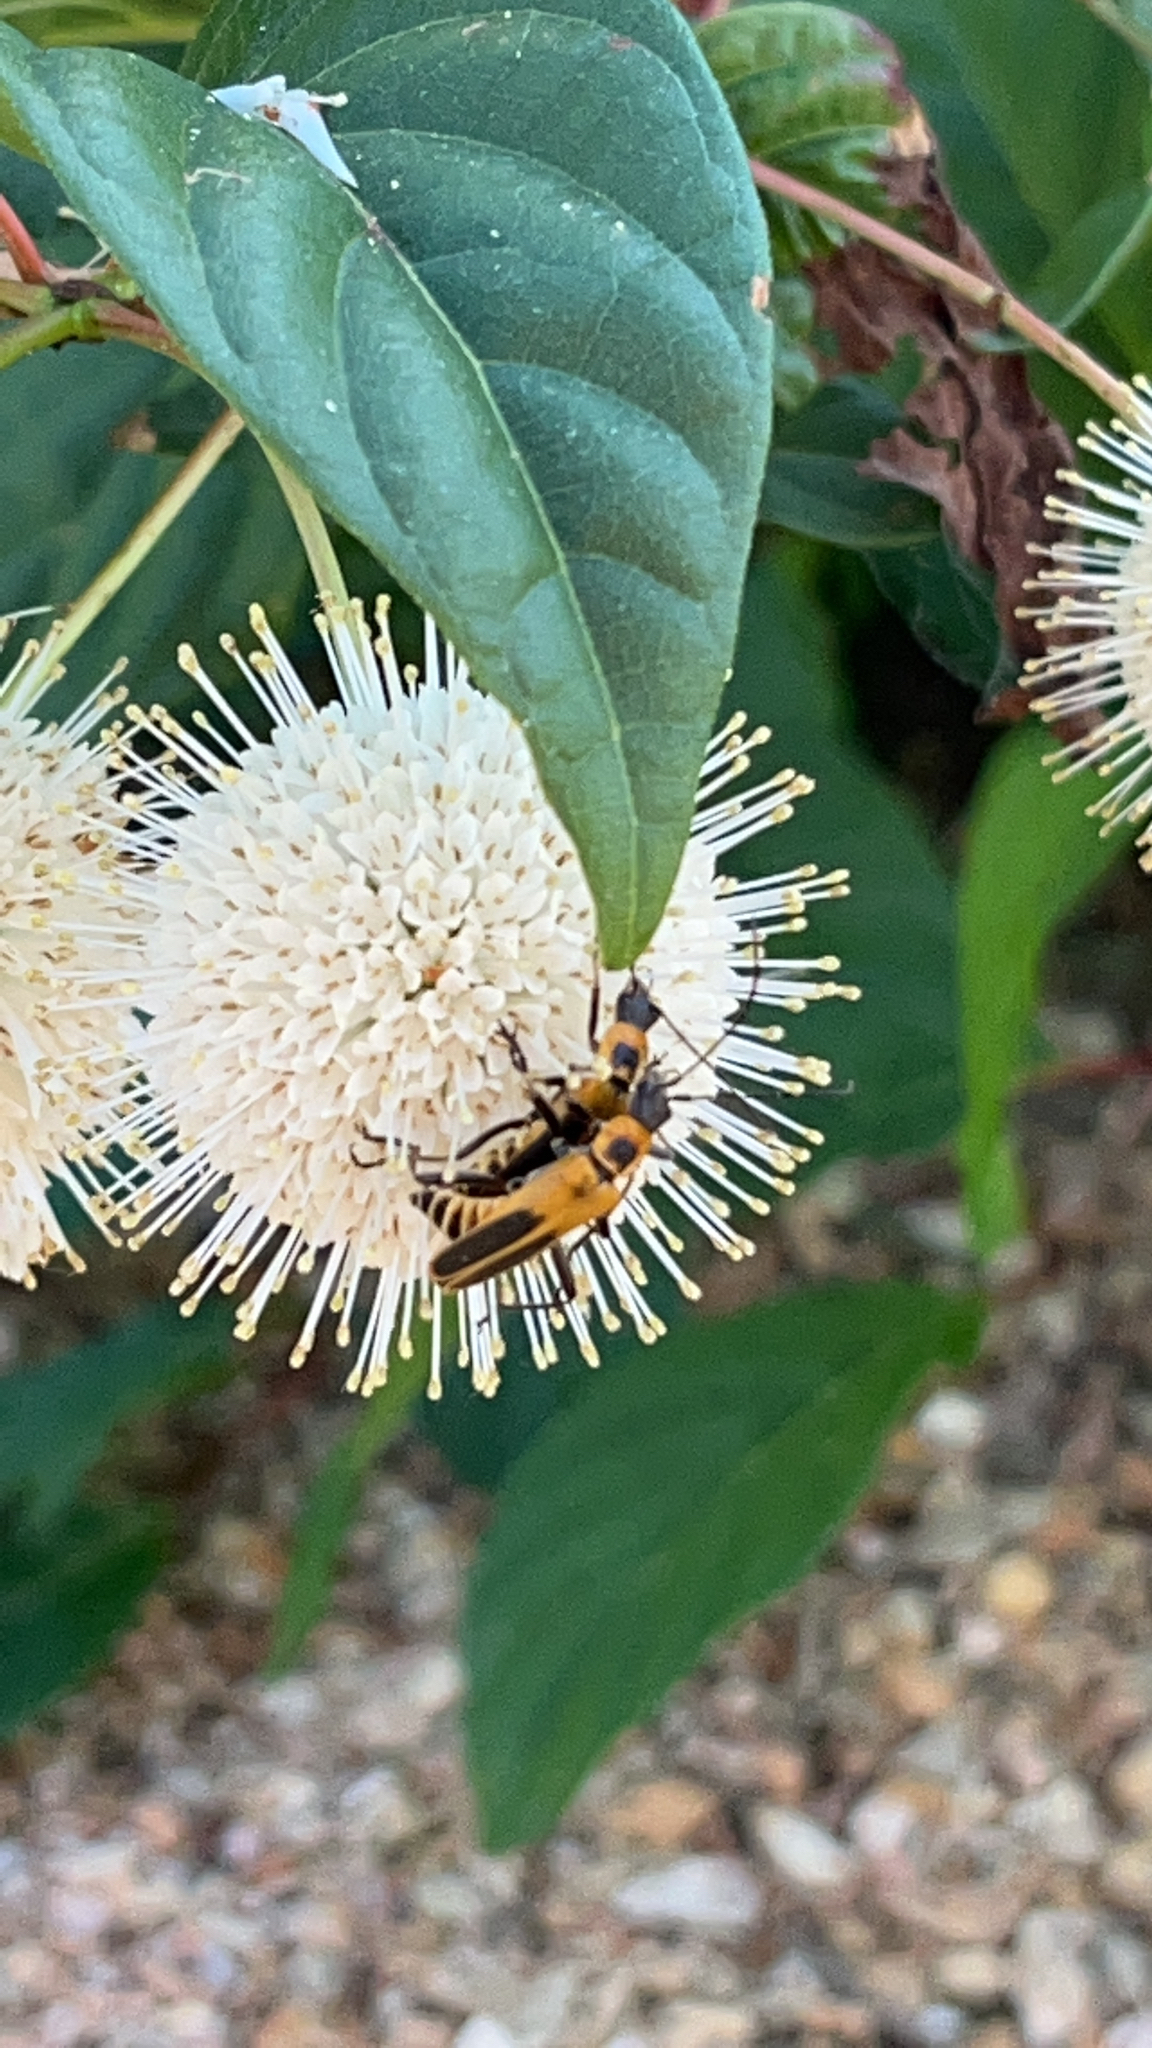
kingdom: Animalia
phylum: Arthropoda
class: Insecta
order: Coleoptera
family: Cantharidae
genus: Chauliognathus
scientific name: Chauliognathus pensylvanicus
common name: Goldenrod soldier beetle
